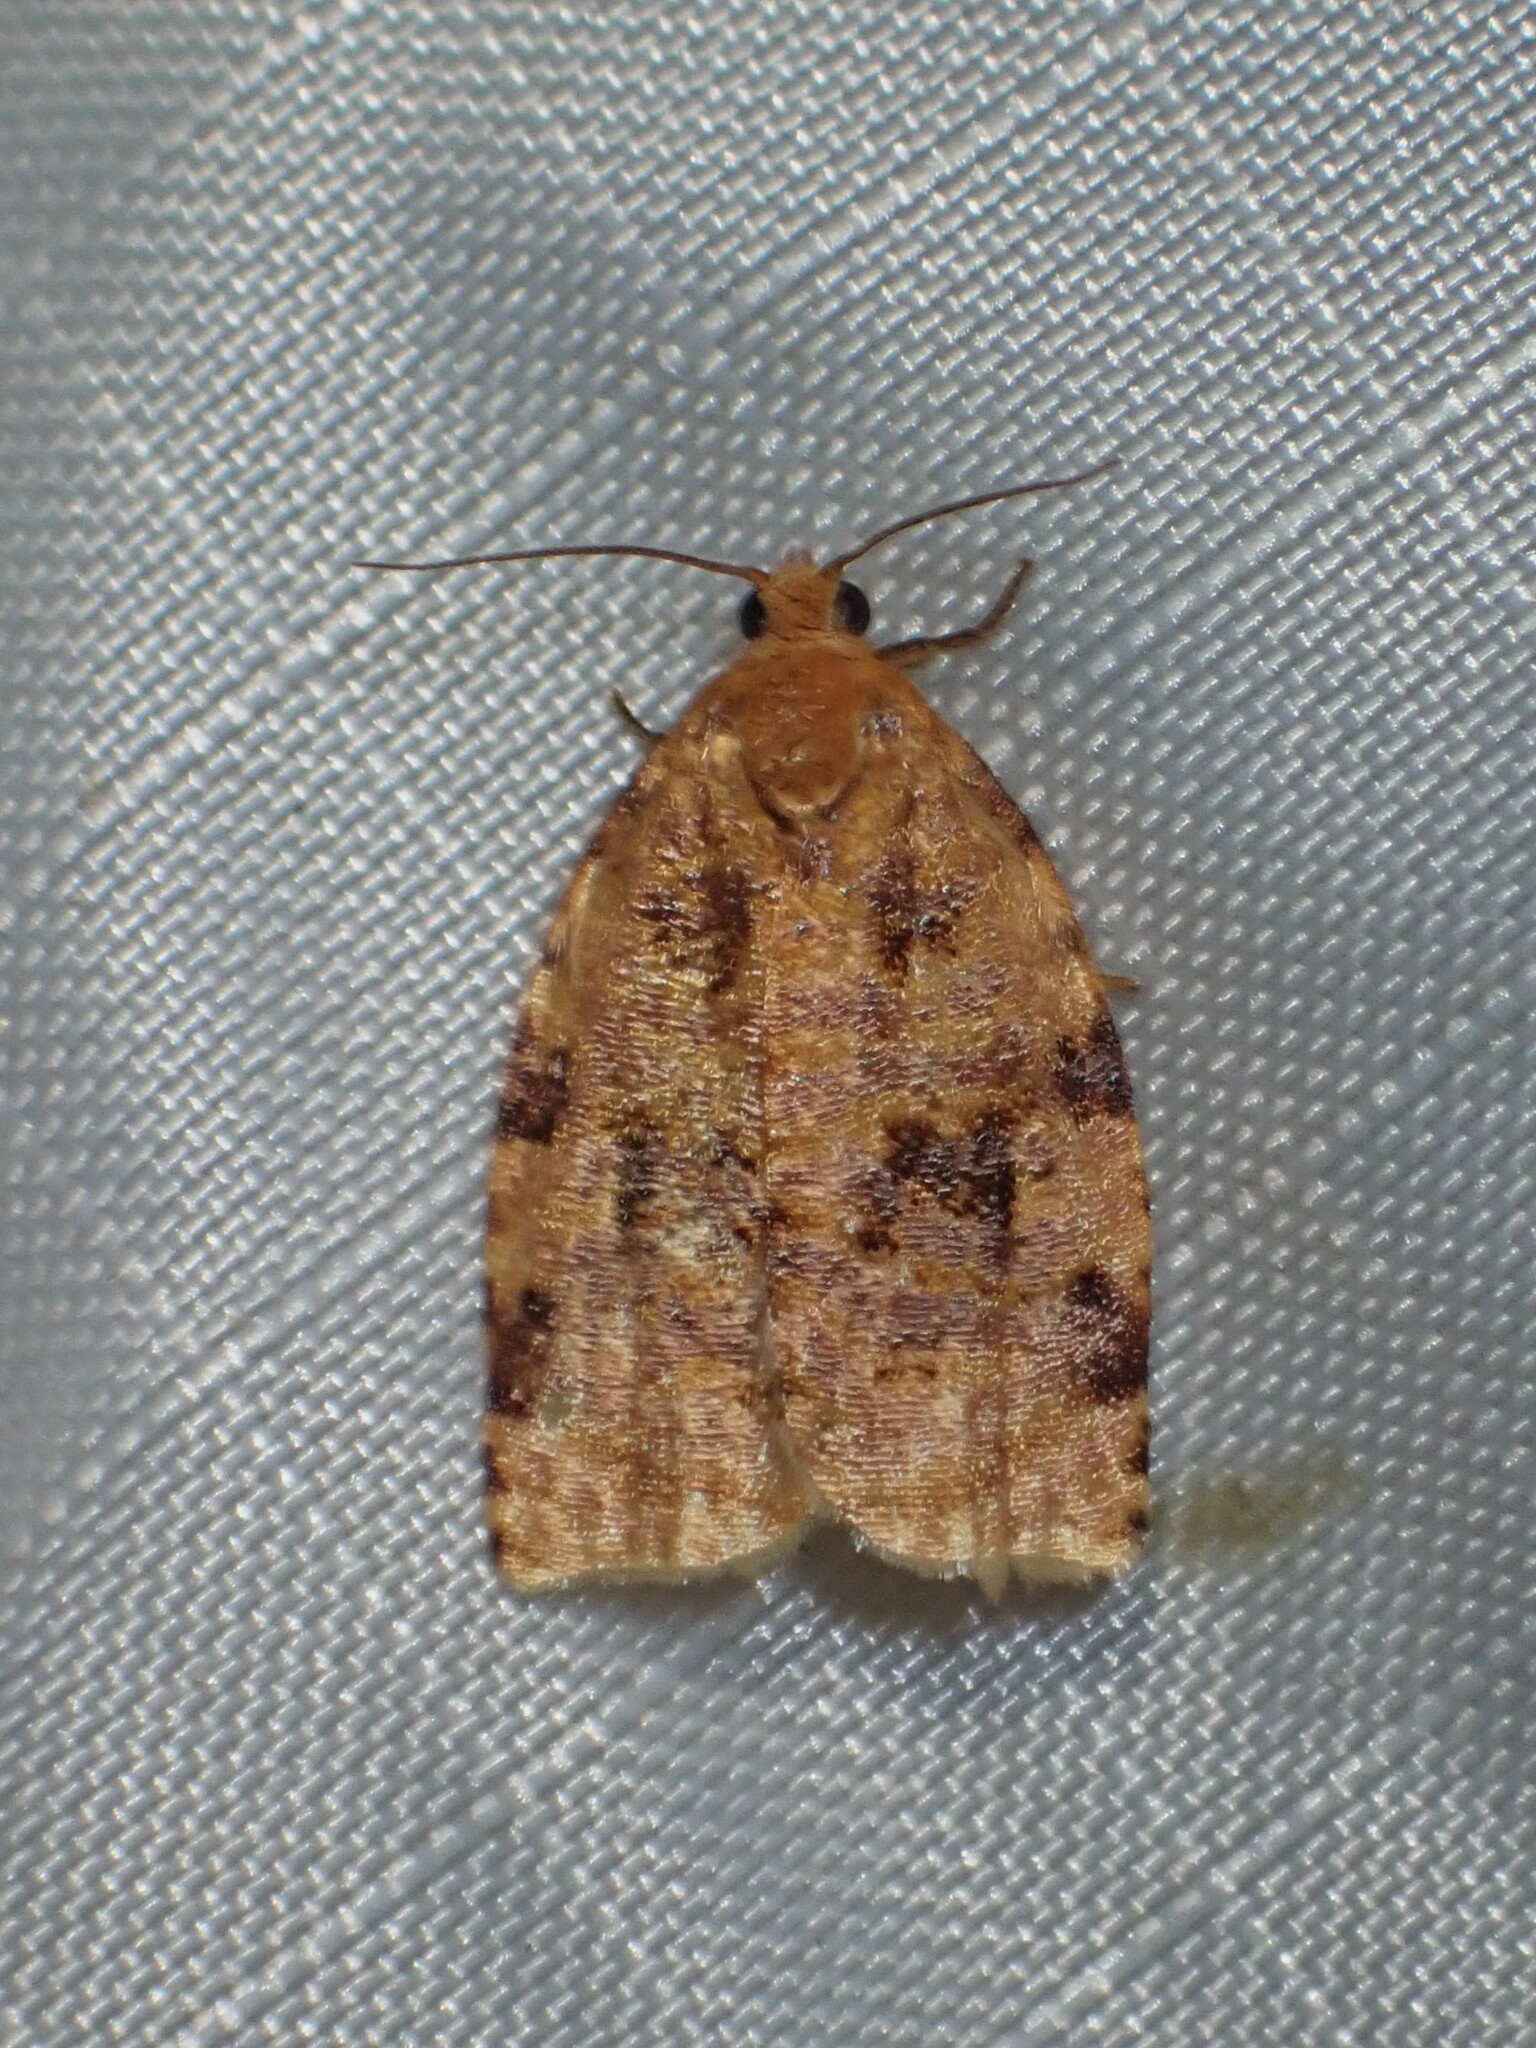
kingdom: Animalia
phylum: Arthropoda
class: Insecta
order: Lepidoptera
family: Tortricidae
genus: Archips
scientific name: Archips cerasivorana
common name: Uglynest caterpillar
